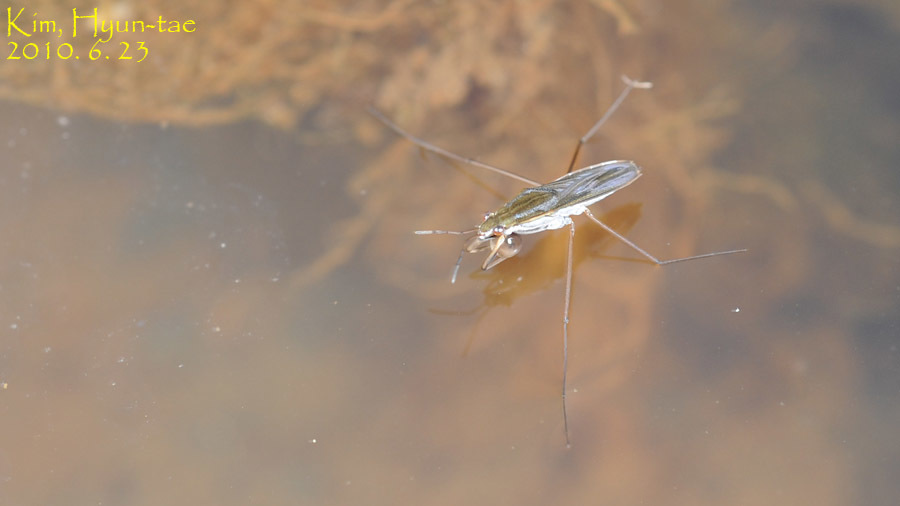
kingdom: Animalia
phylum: Arthropoda
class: Insecta
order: Hemiptera
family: Gerridae
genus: Gerris
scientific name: Gerris latiabdominis
